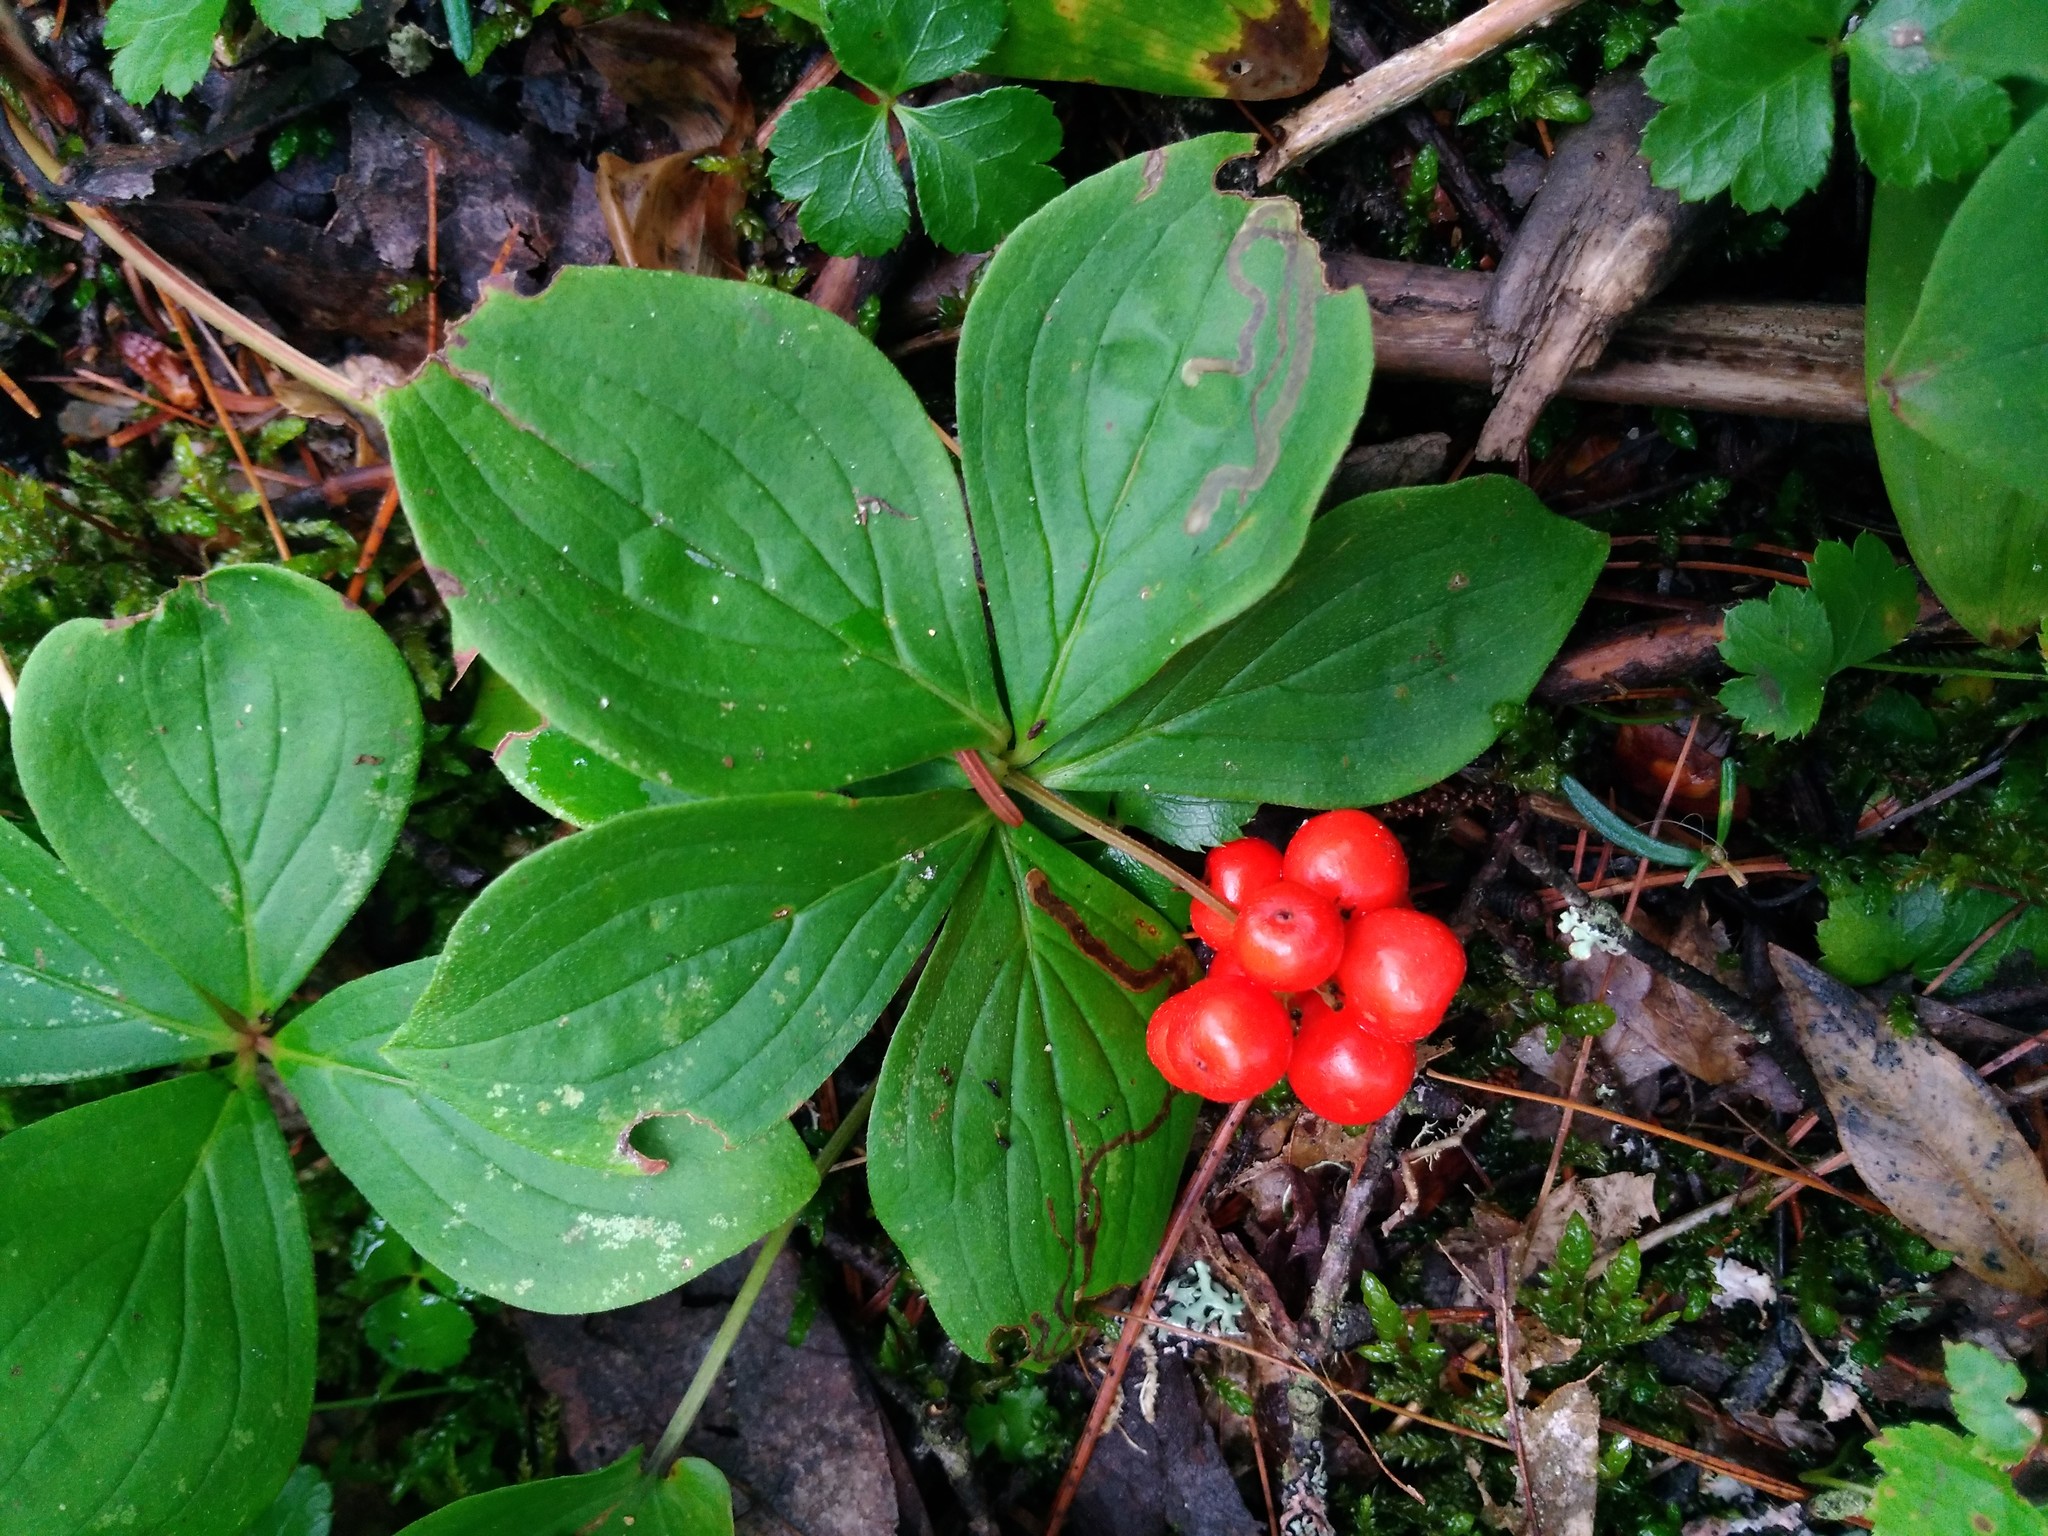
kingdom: Plantae
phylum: Tracheophyta
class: Magnoliopsida
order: Cornales
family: Cornaceae
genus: Cornus
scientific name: Cornus canadensis
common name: Creeping dogwood
